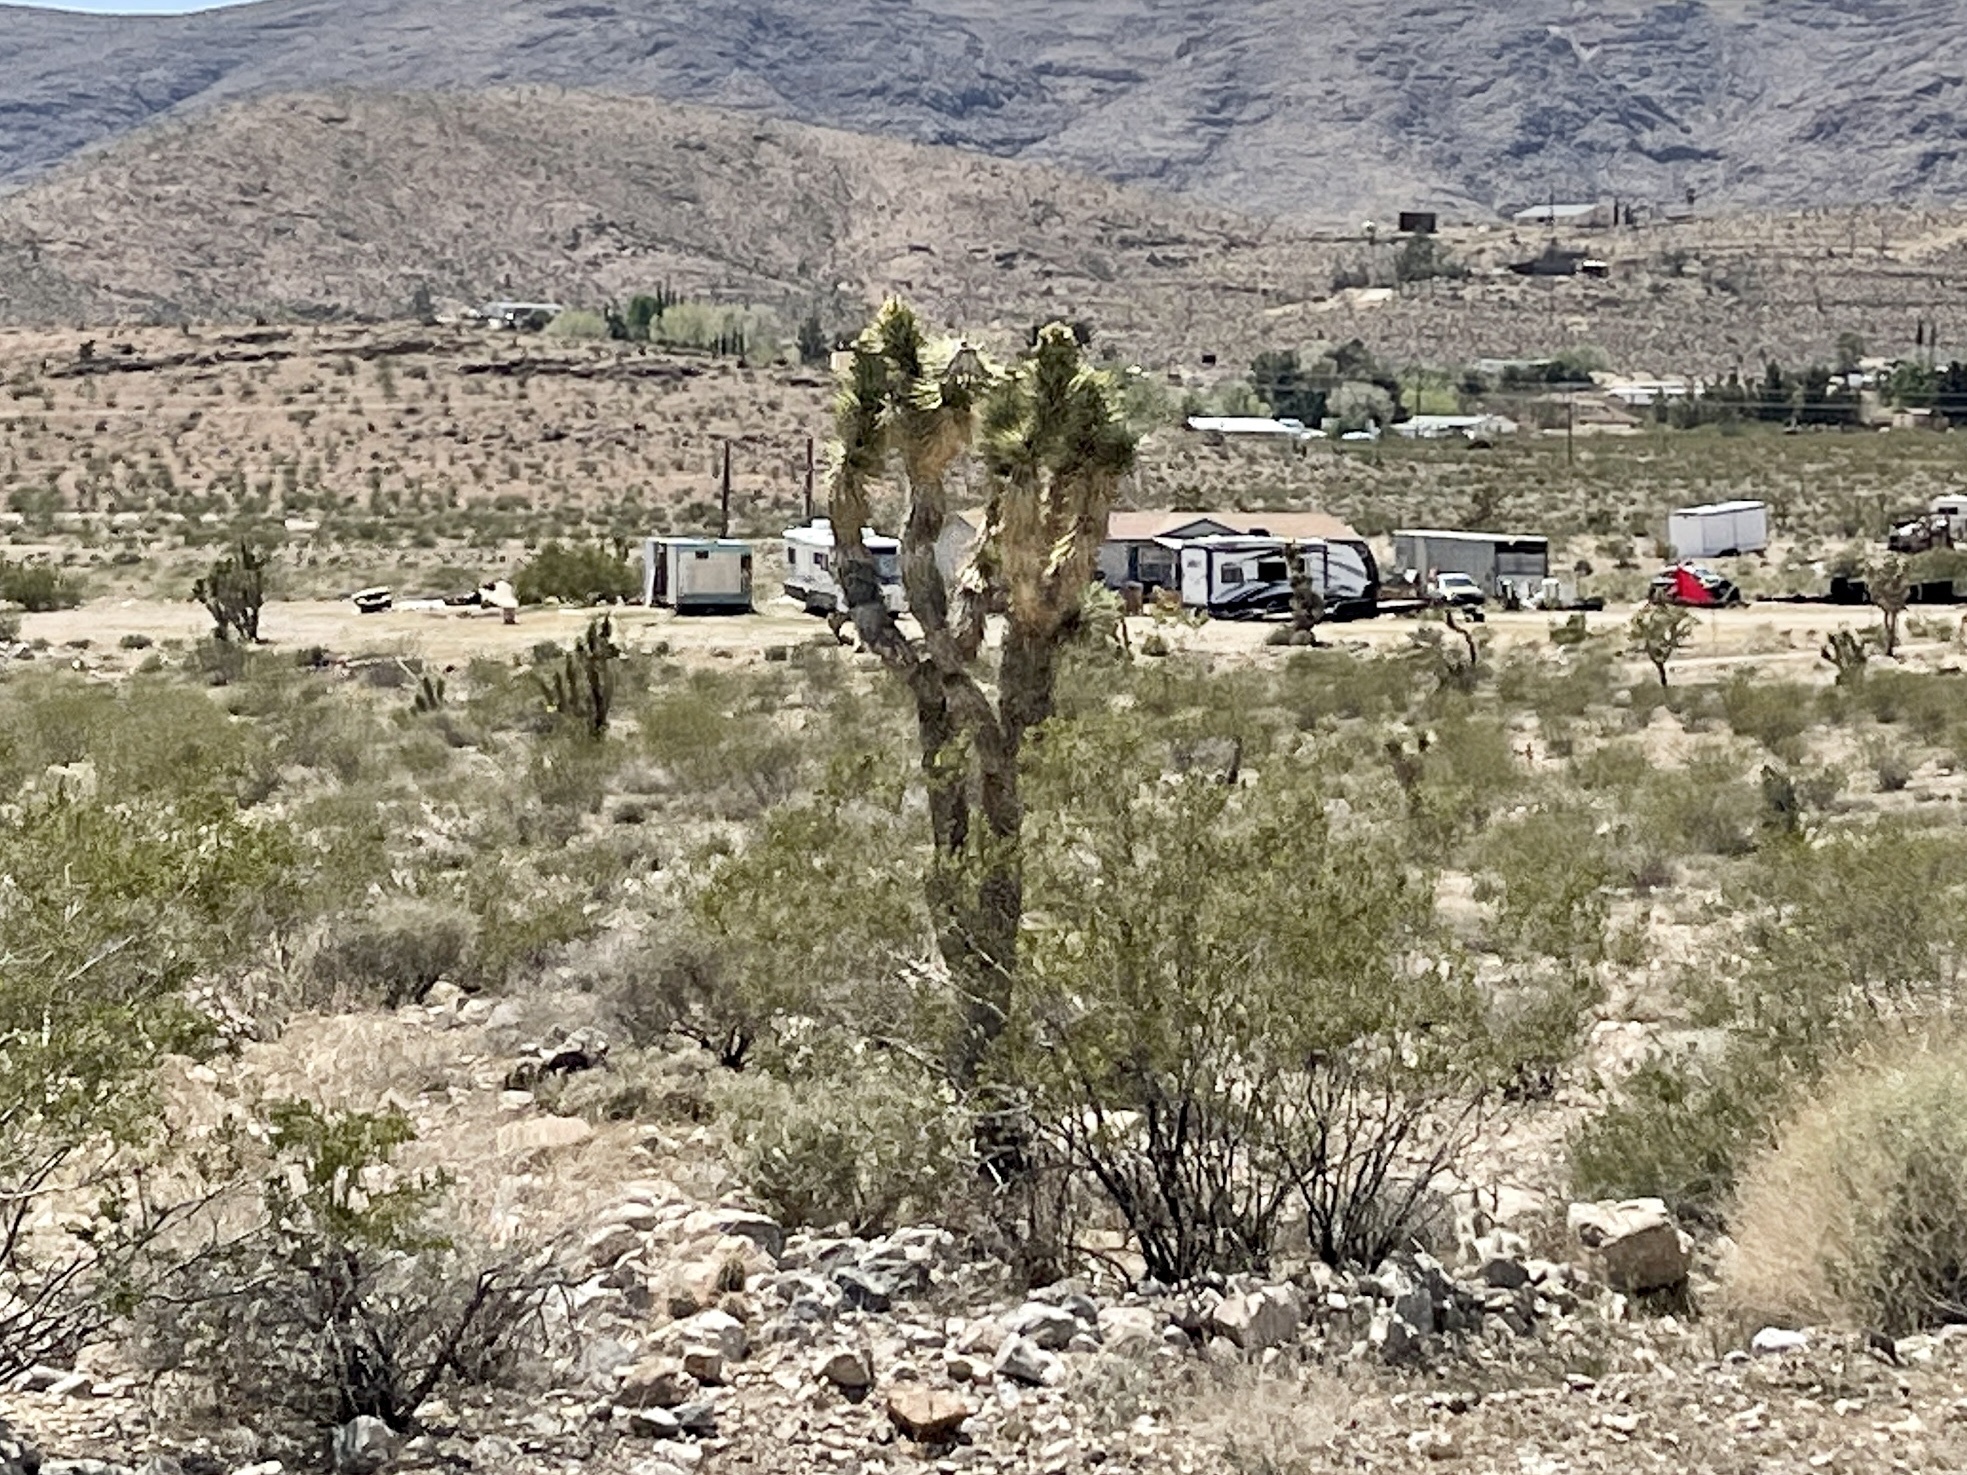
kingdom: Plantae
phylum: Tracheophyta
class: Liliopsida
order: Asparagales
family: Asparagaceae
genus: Yucca
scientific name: Yucca brevifolia
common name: Joshua tree
